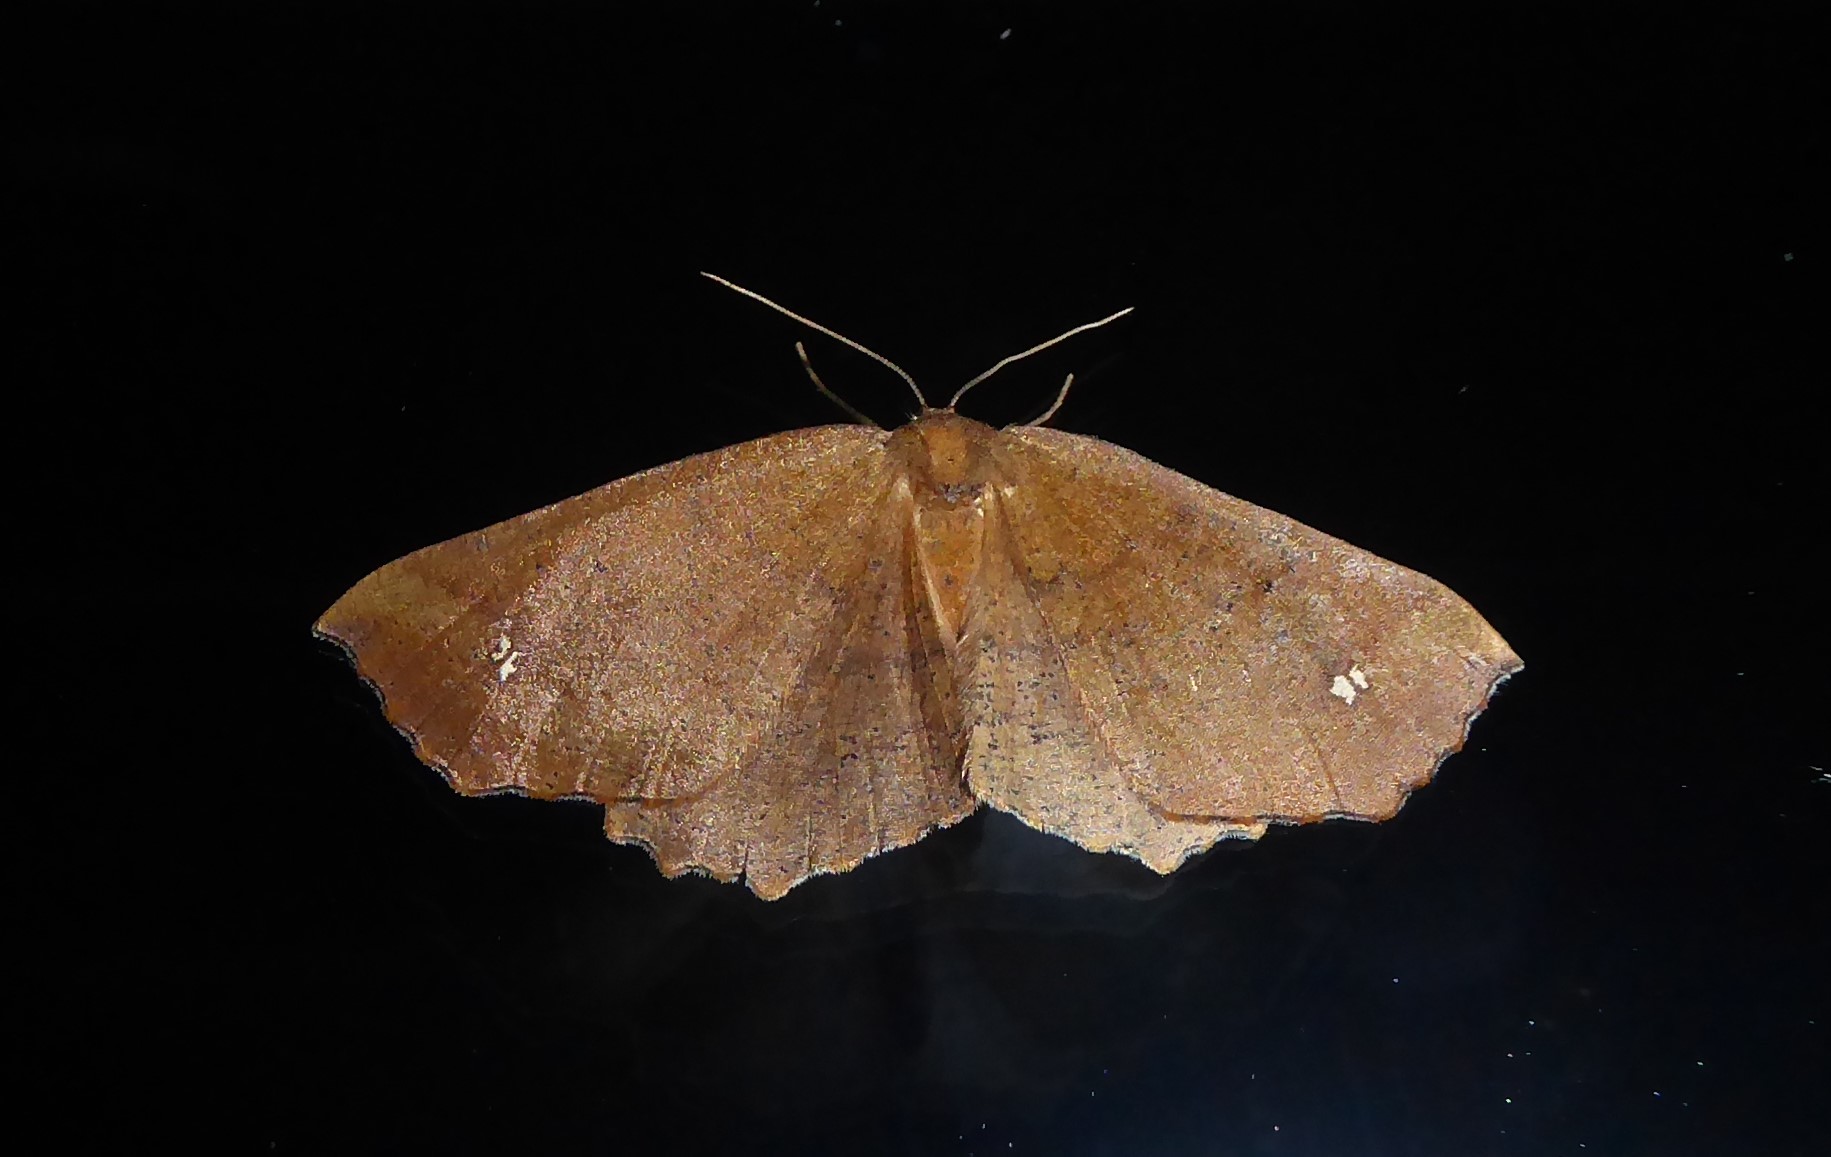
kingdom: Animalia
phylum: Arthropoda
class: Insecta
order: Lepidoptera
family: Geometridae
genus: Xyridacma
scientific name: Xyridacma ustaria
